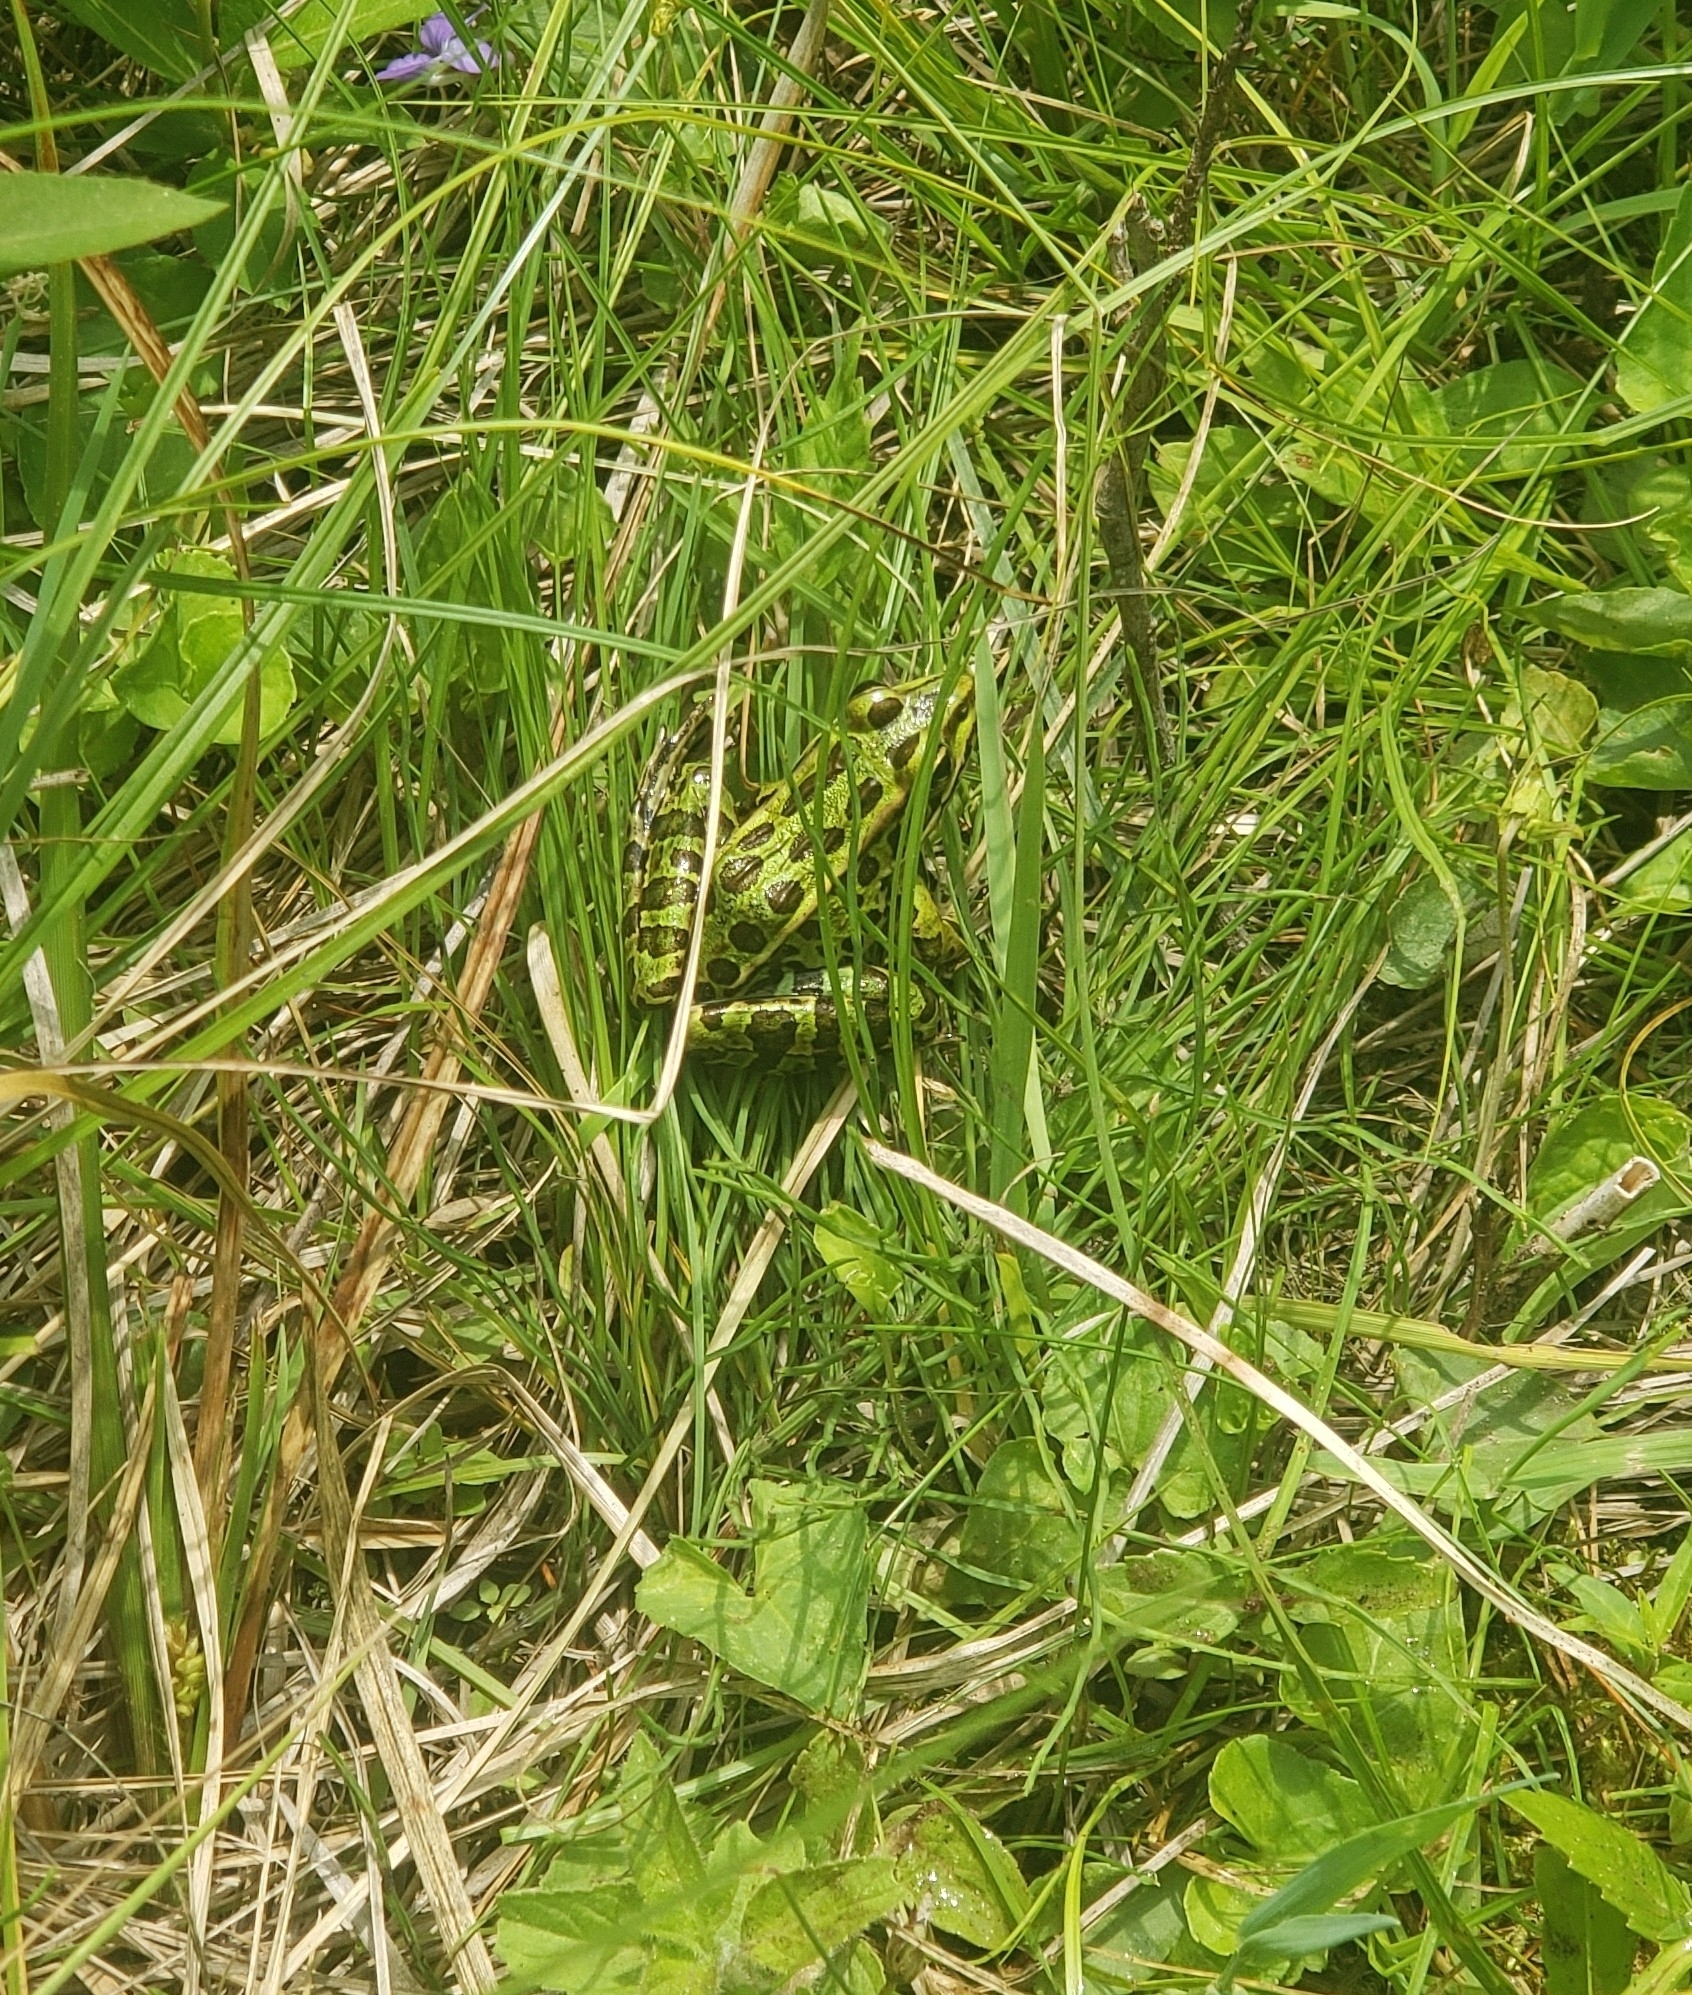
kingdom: Animalia
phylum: Chordata
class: Amphibia
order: Anura
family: Ranidae
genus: Lithobates
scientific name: Lithobates pipiens
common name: Northern leopard frog
